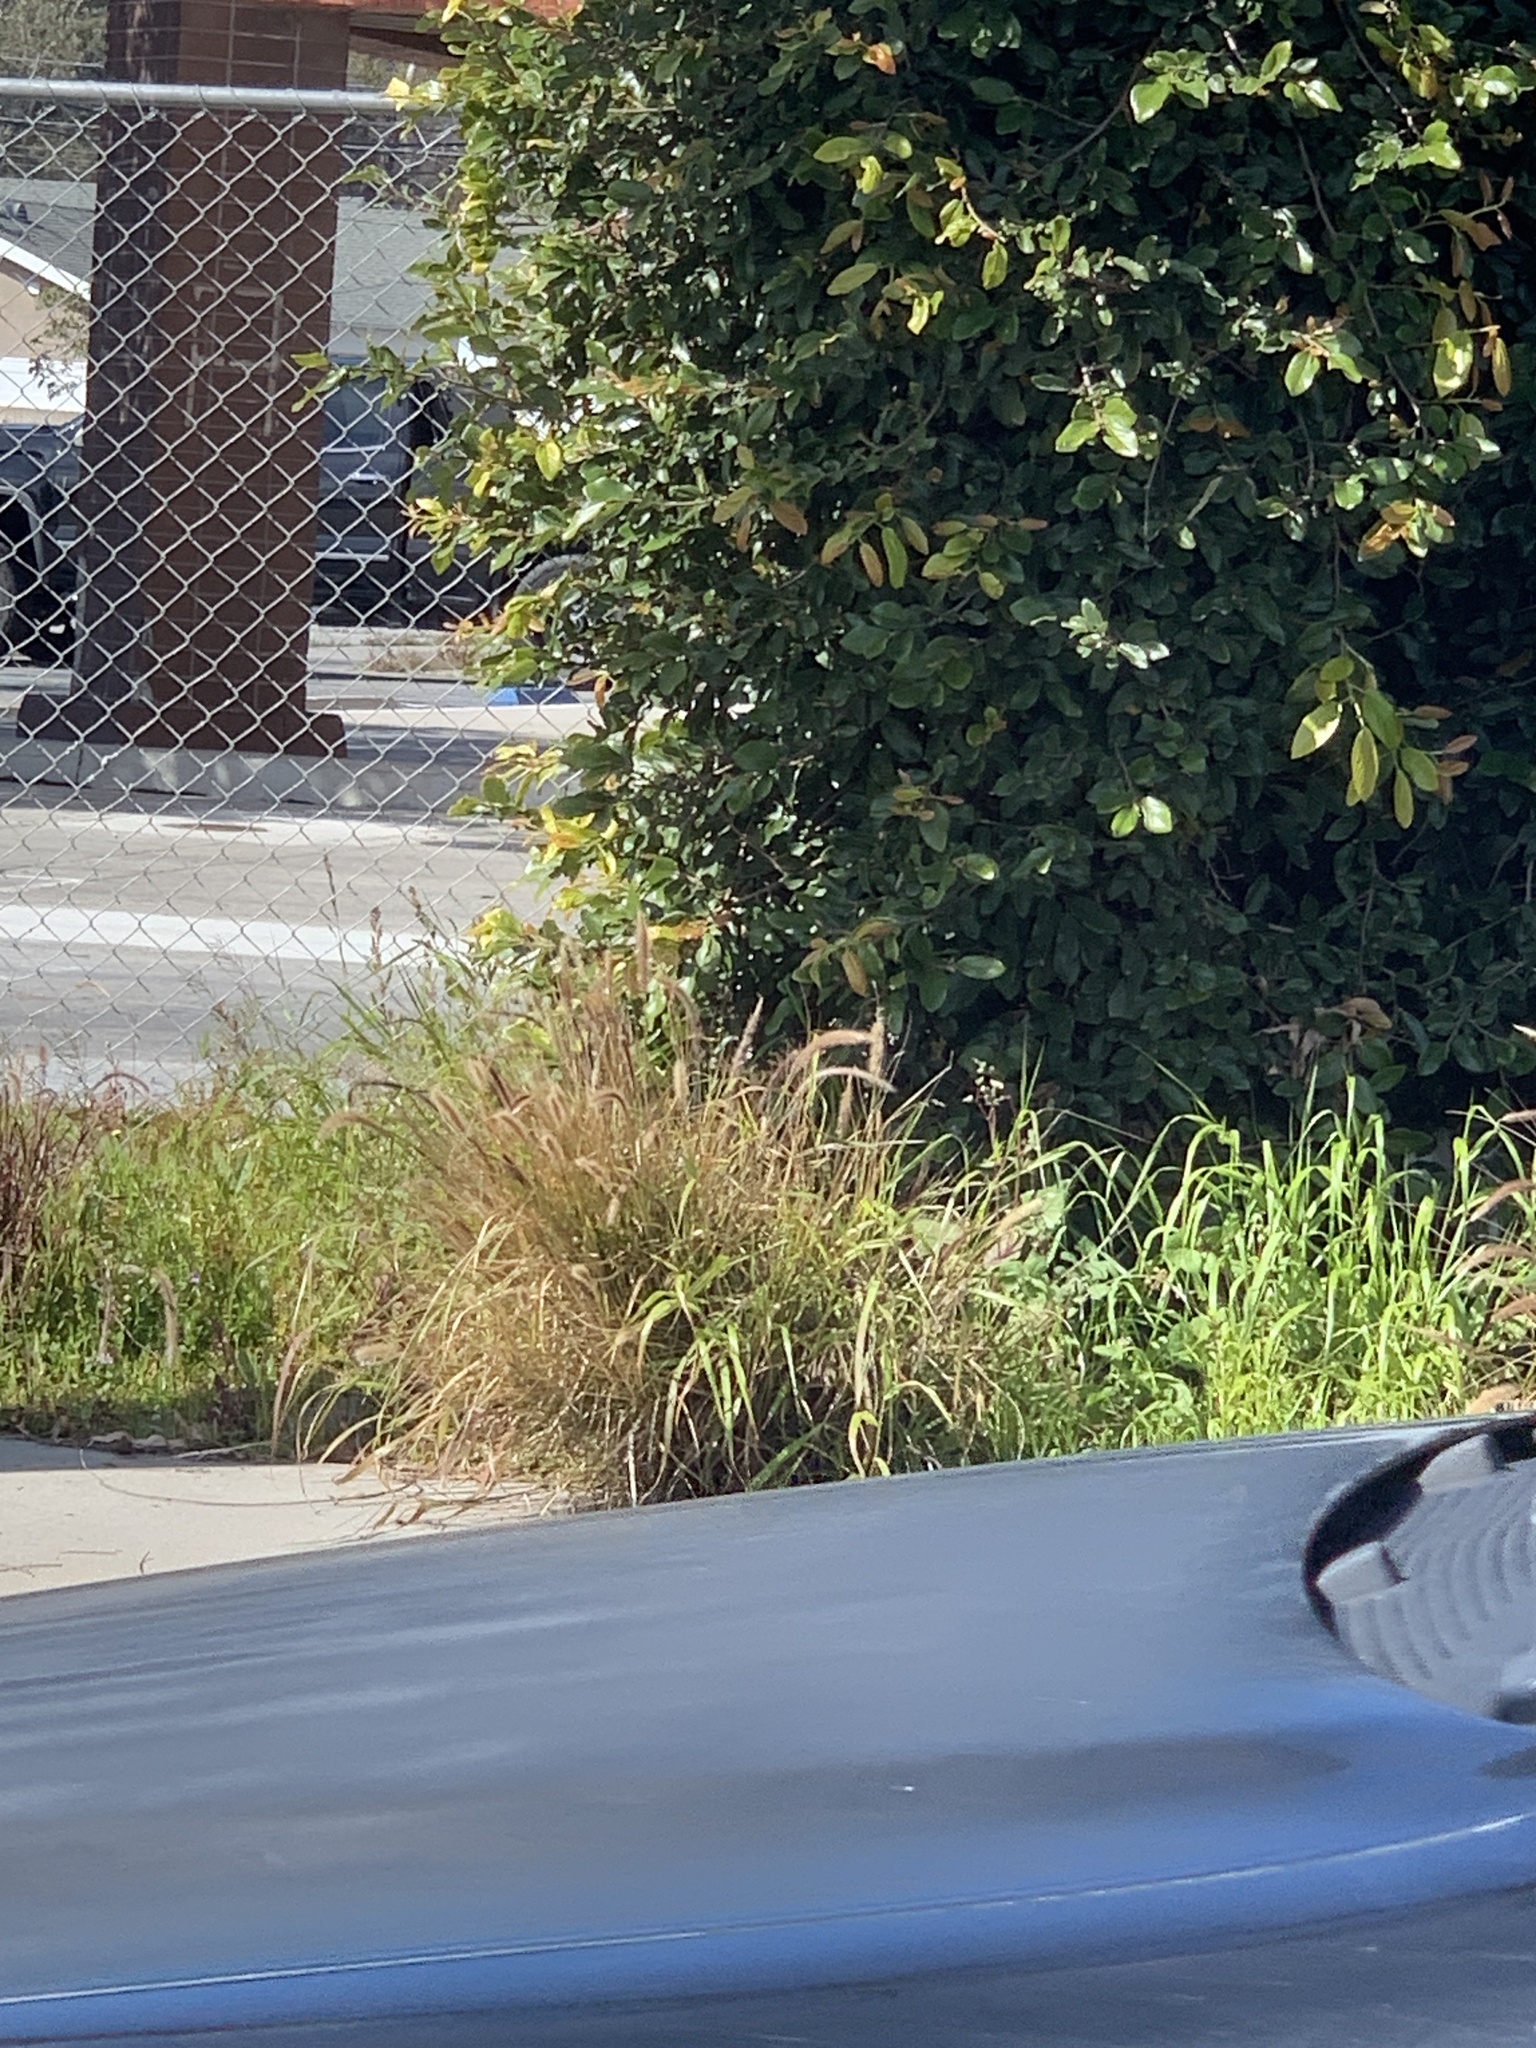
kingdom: Plantae
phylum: Tracheophyta
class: Liliopsida
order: Poales
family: Poaceae
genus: Cenchrus
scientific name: Cenchrus setaceus
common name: Crimson fountaingrass
